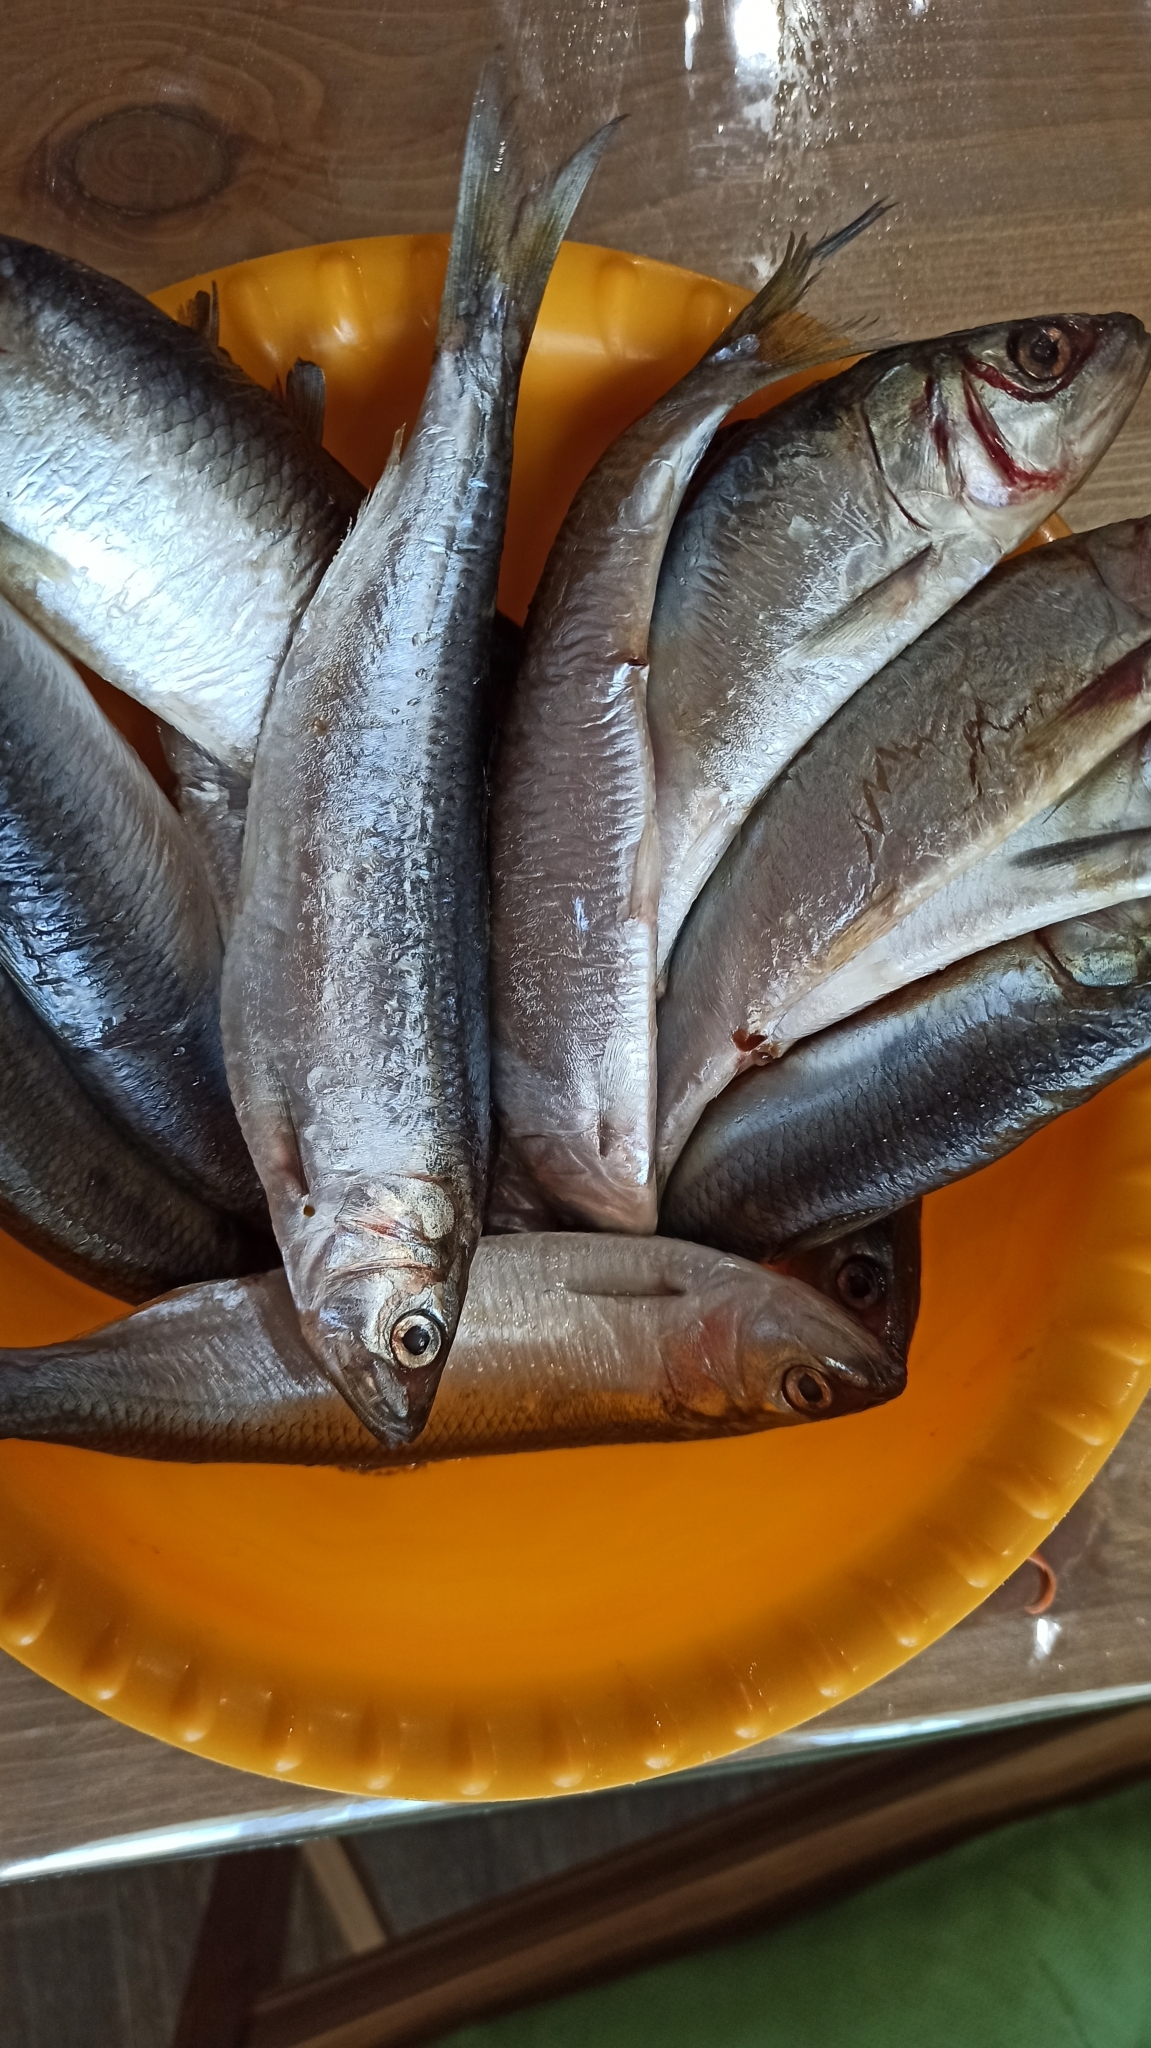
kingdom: Animalia
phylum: Chordata
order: Clupeiformes
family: Clupeidae
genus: Alosa
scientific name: Alosa immaculata
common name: Pontic shad
